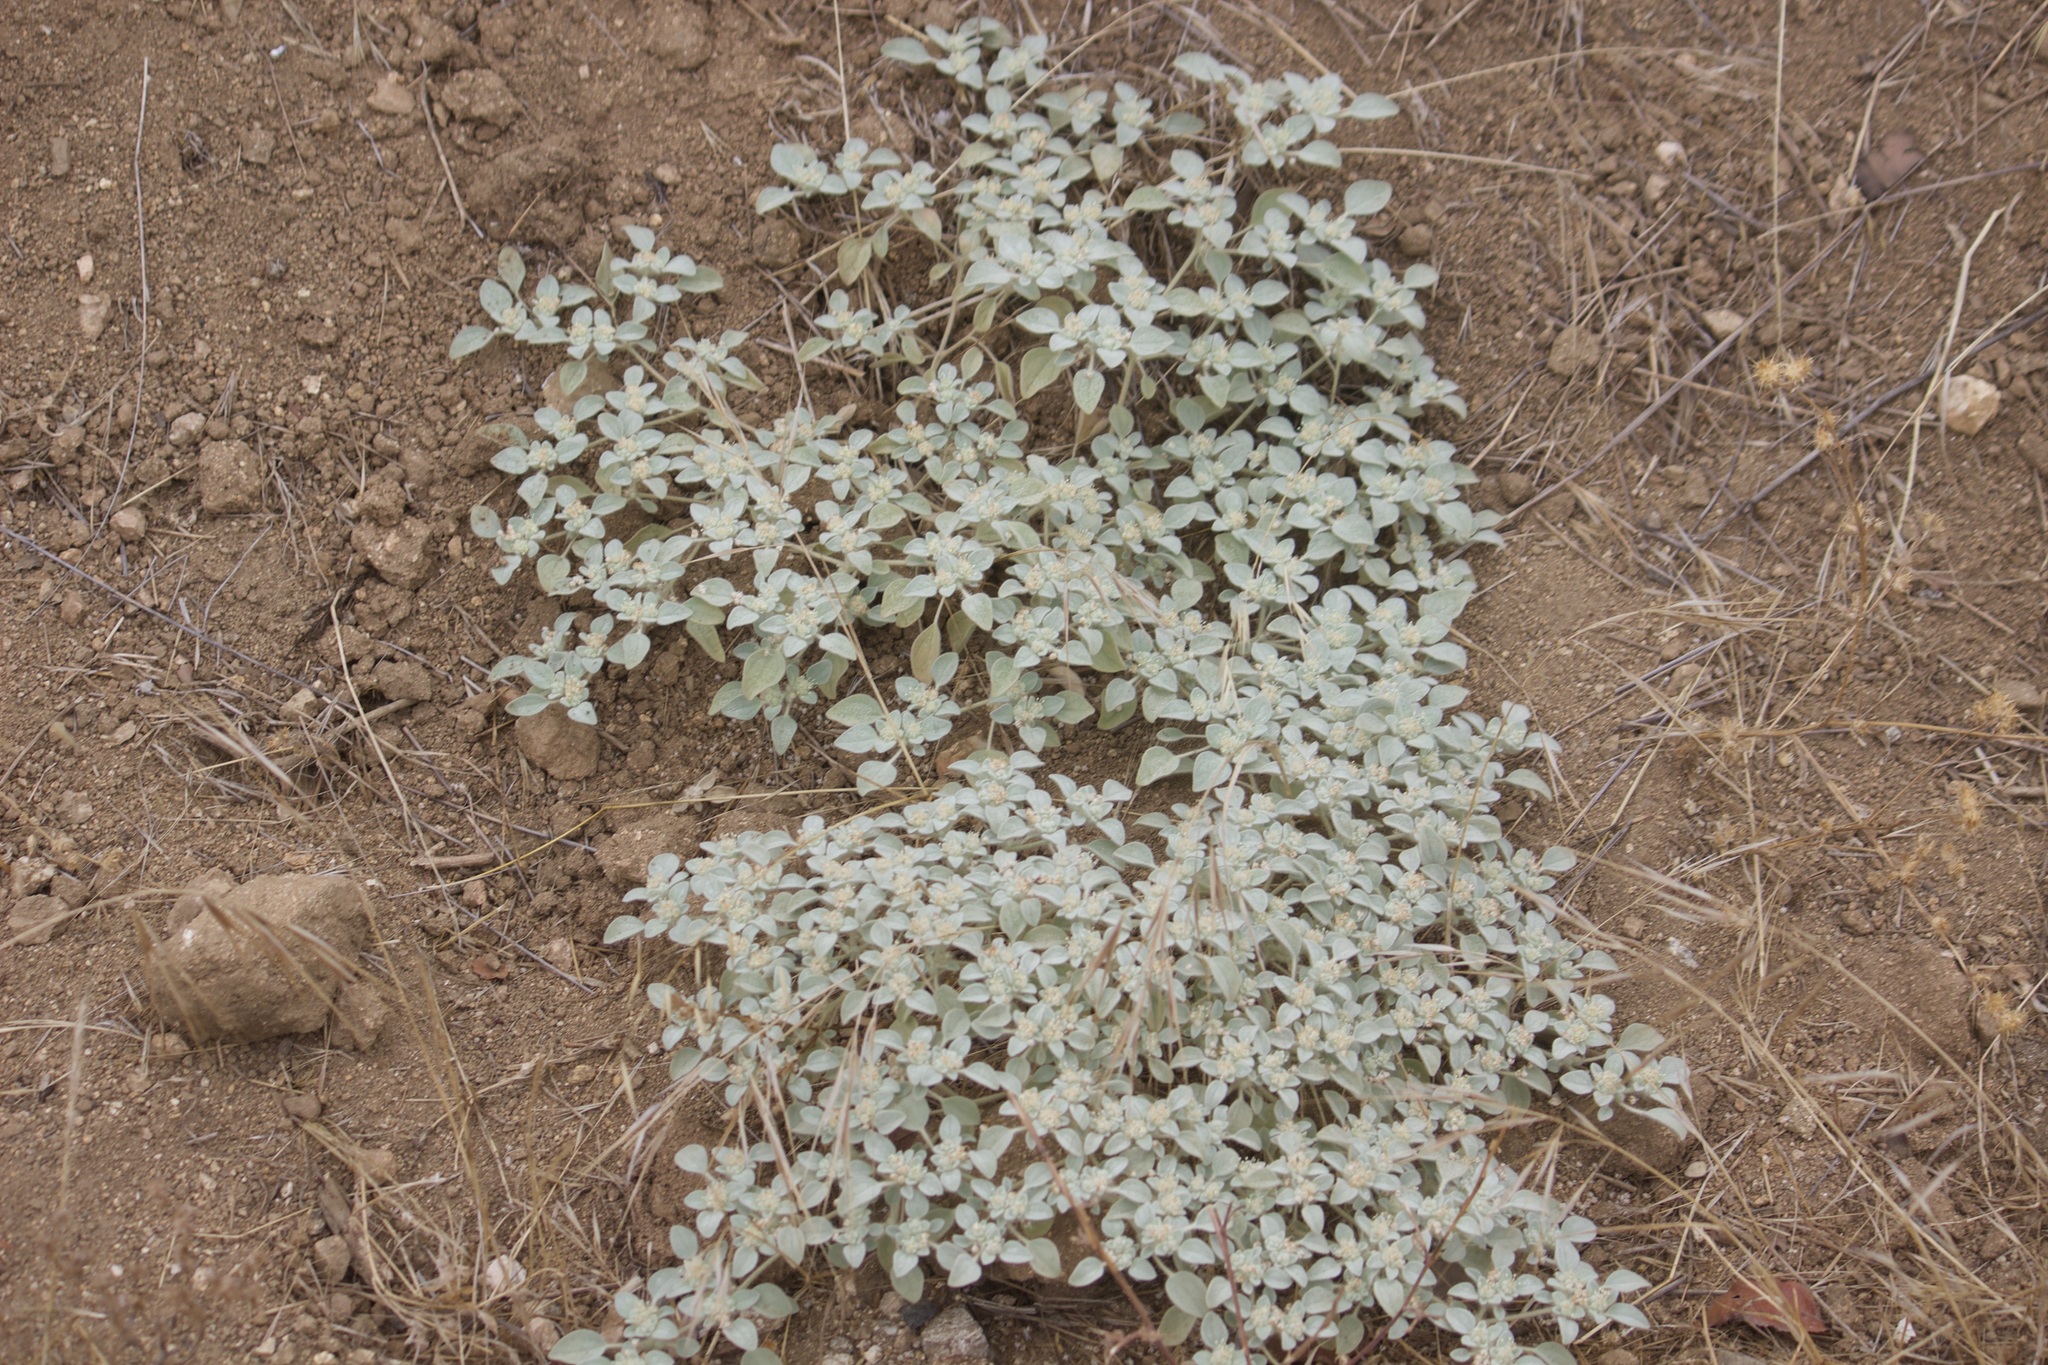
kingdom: Plantae
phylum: Tracheophyta
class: Magnoliopsida
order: Malpighiales
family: Euphorbiaceae
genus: Croton
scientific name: Croton setiger
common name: Dove weed
